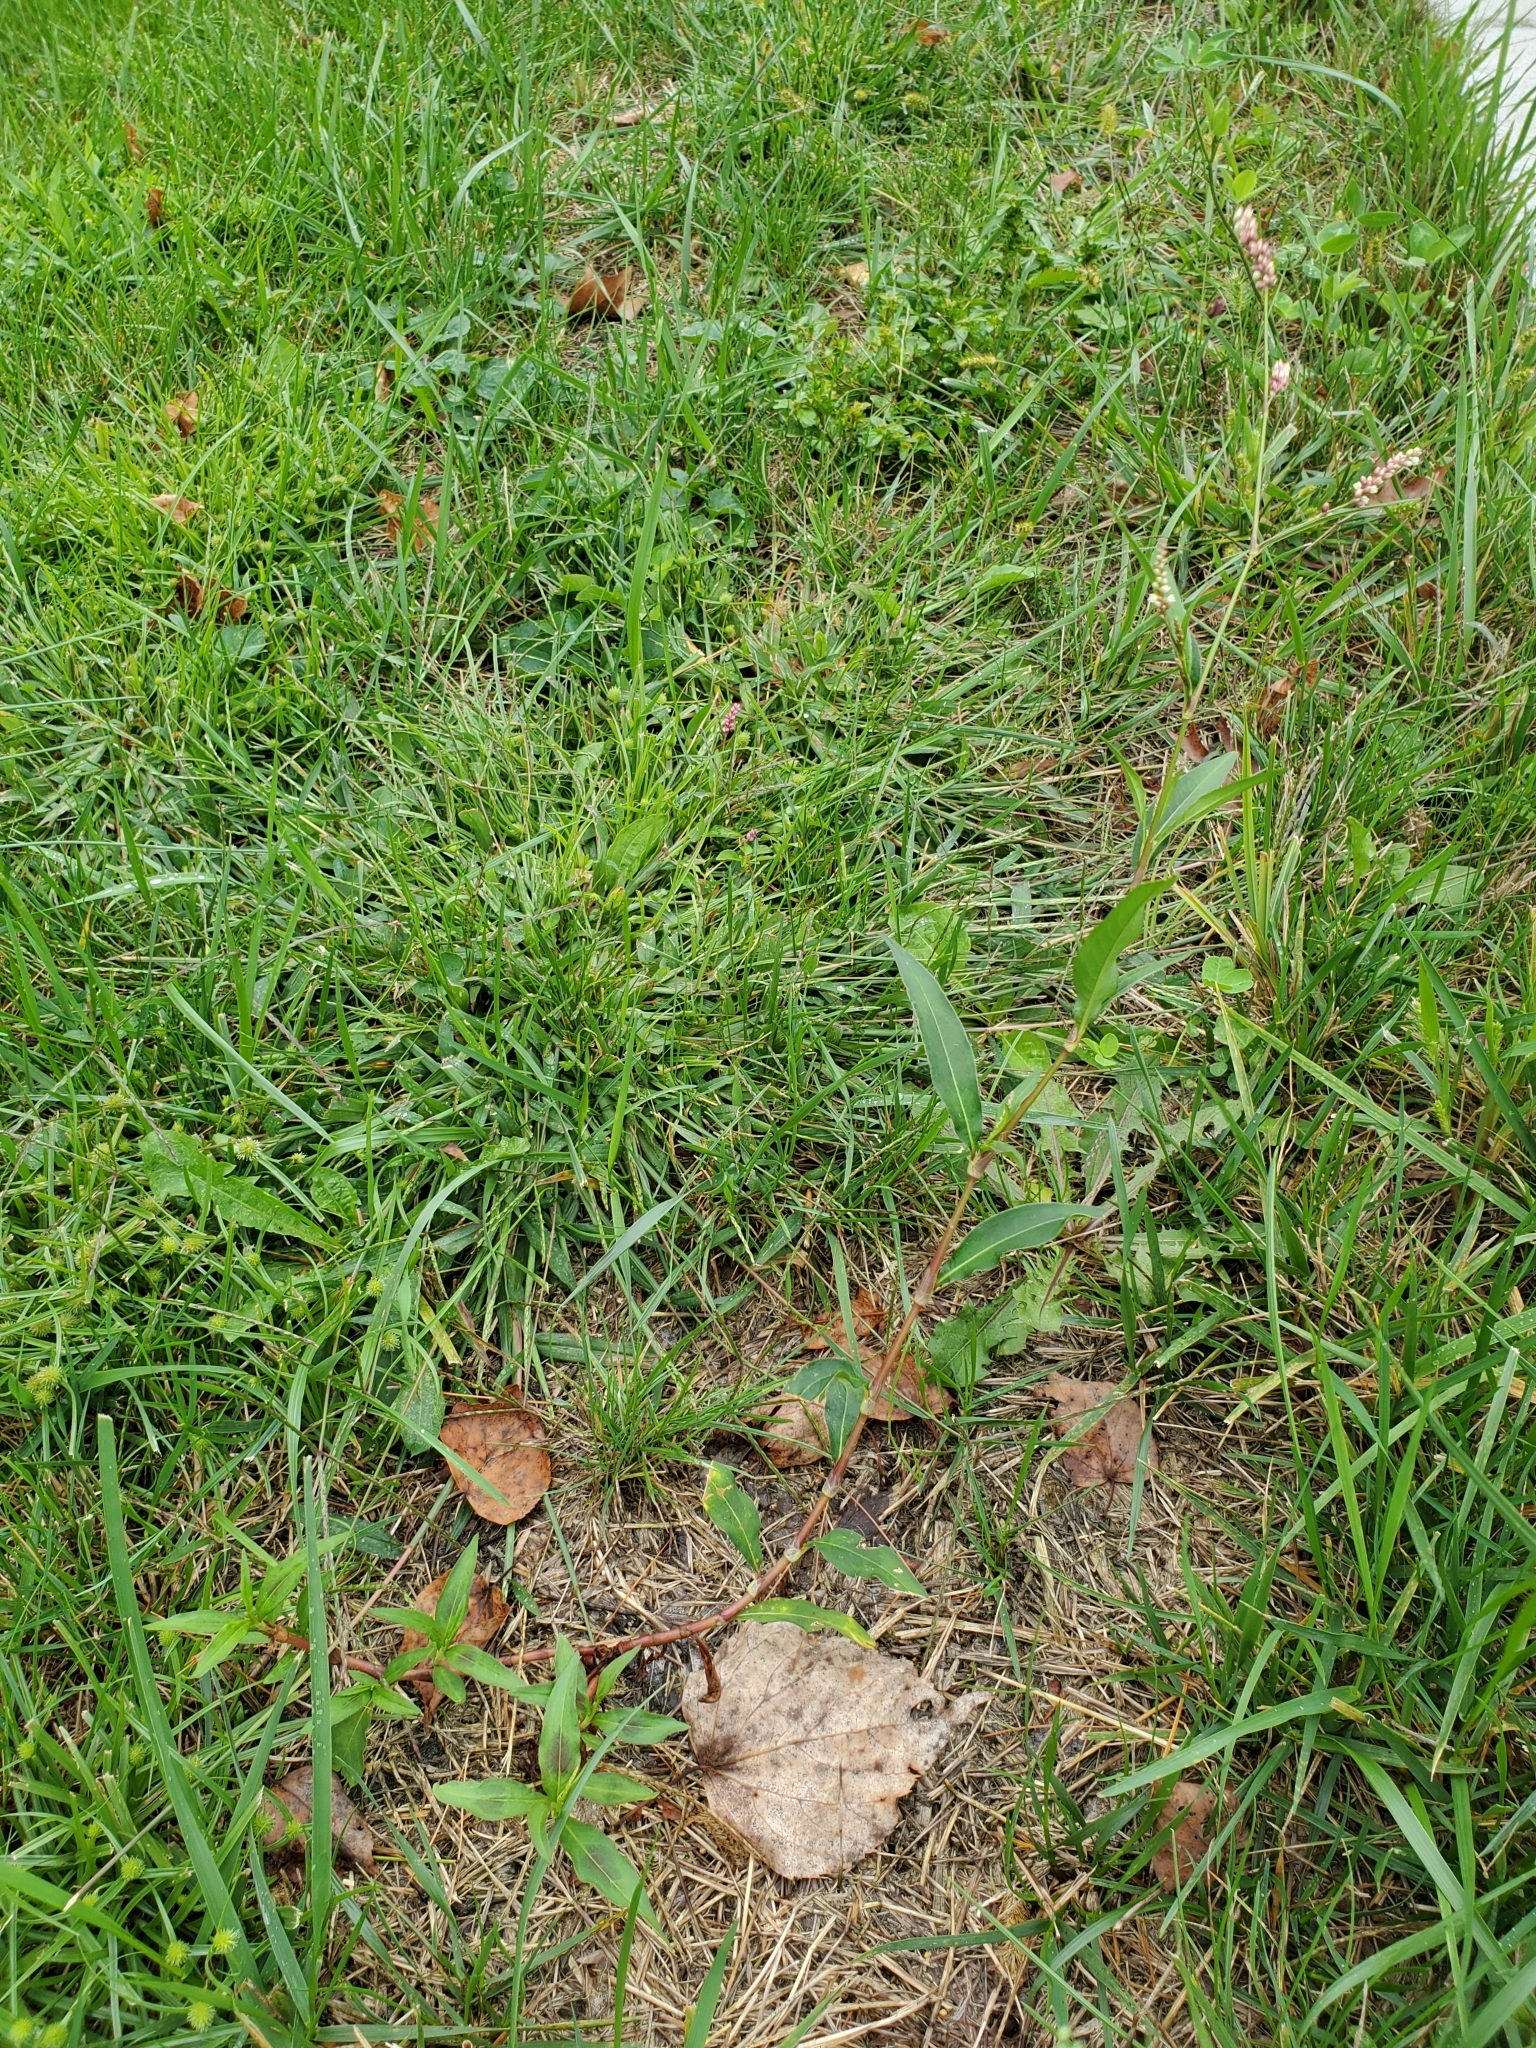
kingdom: Plantae
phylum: Tracheophyta
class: Magnoliopsida
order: Caryophyllales
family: Polygonaceae
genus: Persicaria
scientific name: Persicaria maculosa
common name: Redshank
